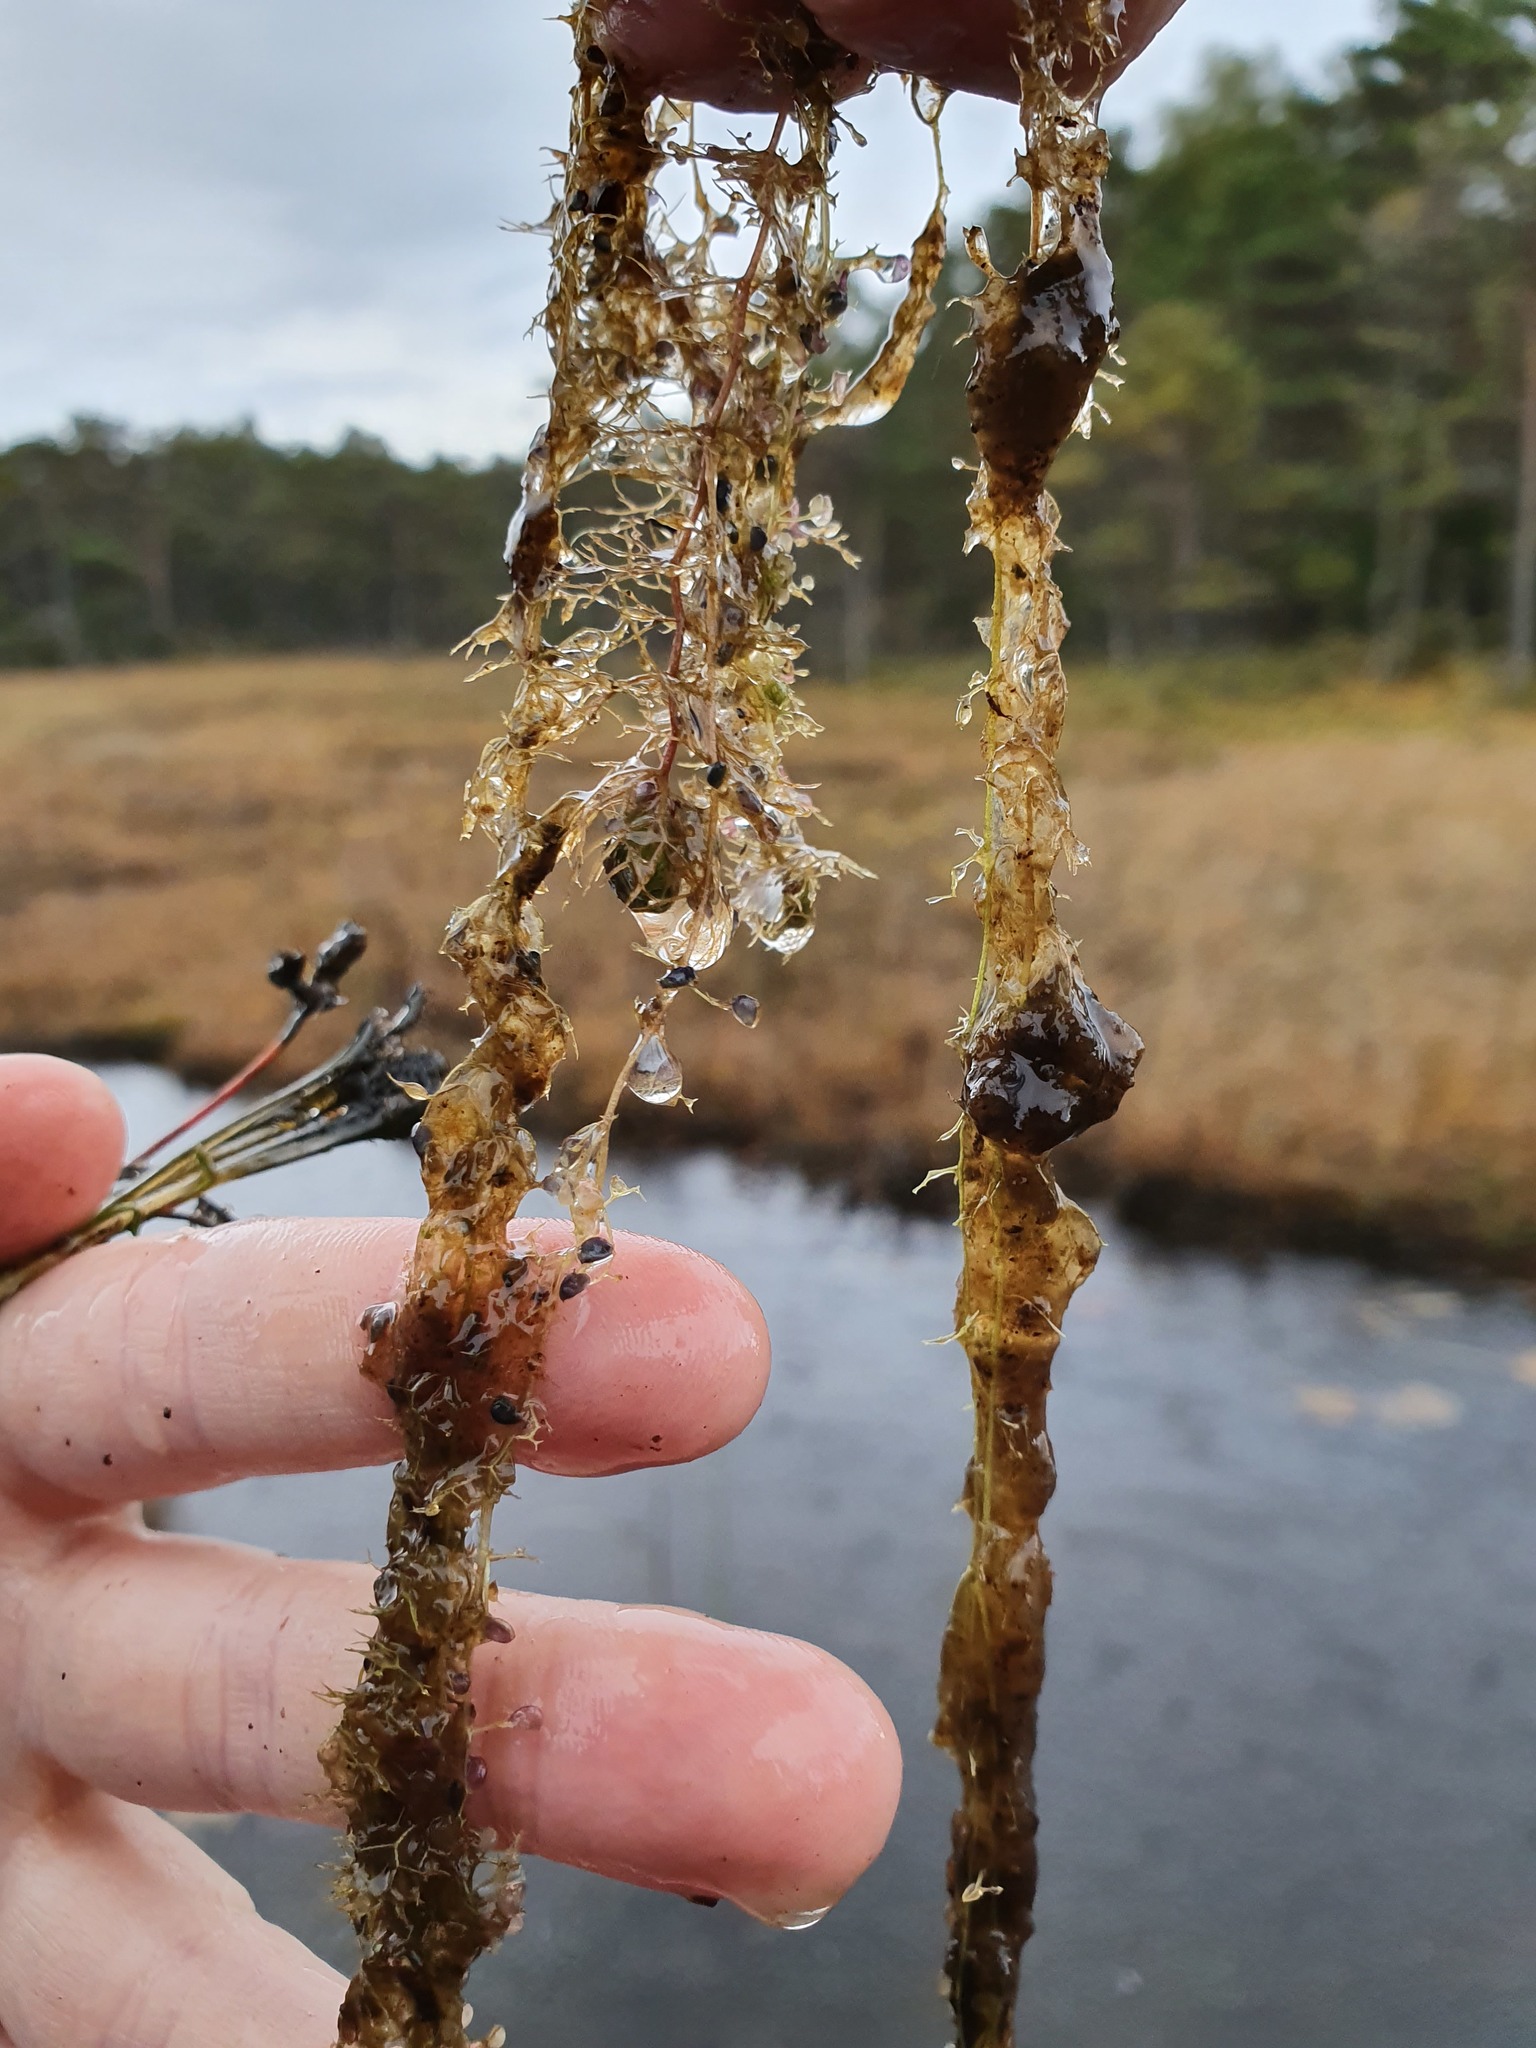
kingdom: Plantae
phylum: Tracheophyta
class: Magnoliopsida
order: Lamiales
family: Lentibulariaceae
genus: Utricularia
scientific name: Utricularia vulgaris
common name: Greater bladderwort
